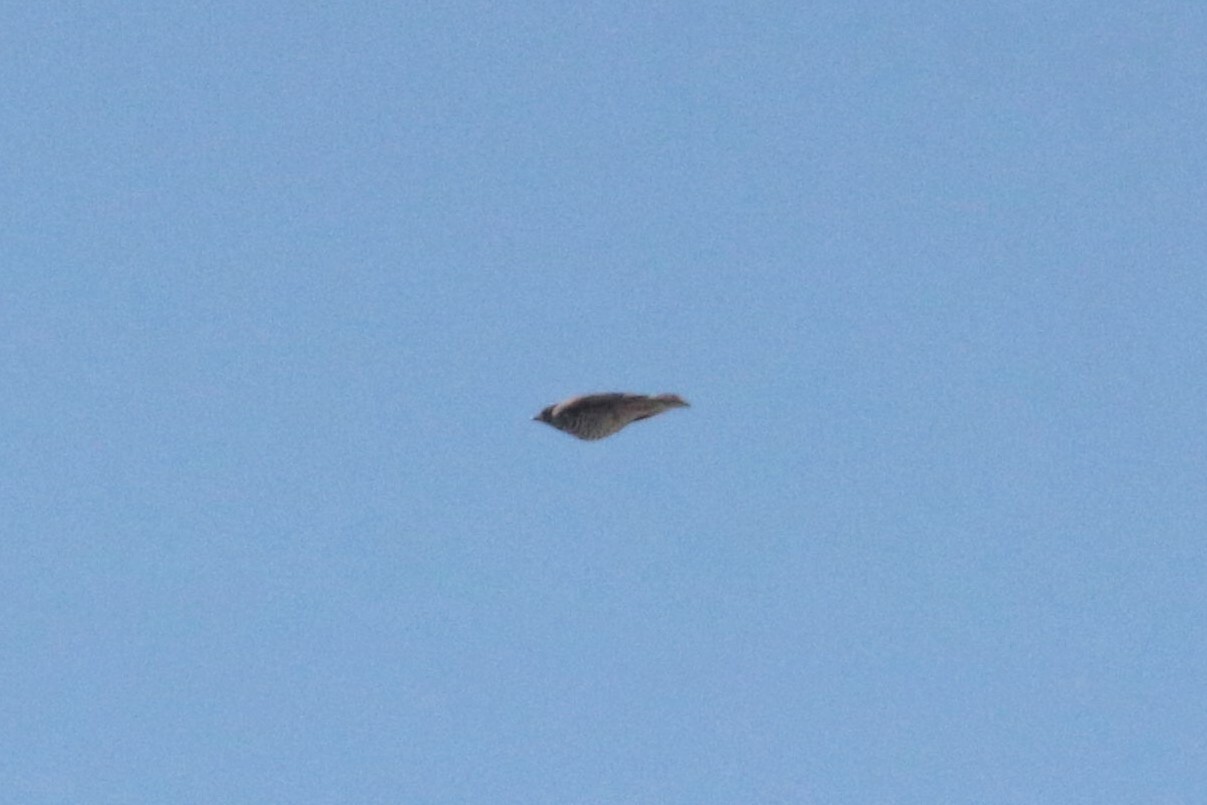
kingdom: Animalia
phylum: Chordata
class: Aves
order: Passeriformes
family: Turdidae
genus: Turdus
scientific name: Turdus viscivorus
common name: Mistle thrush
